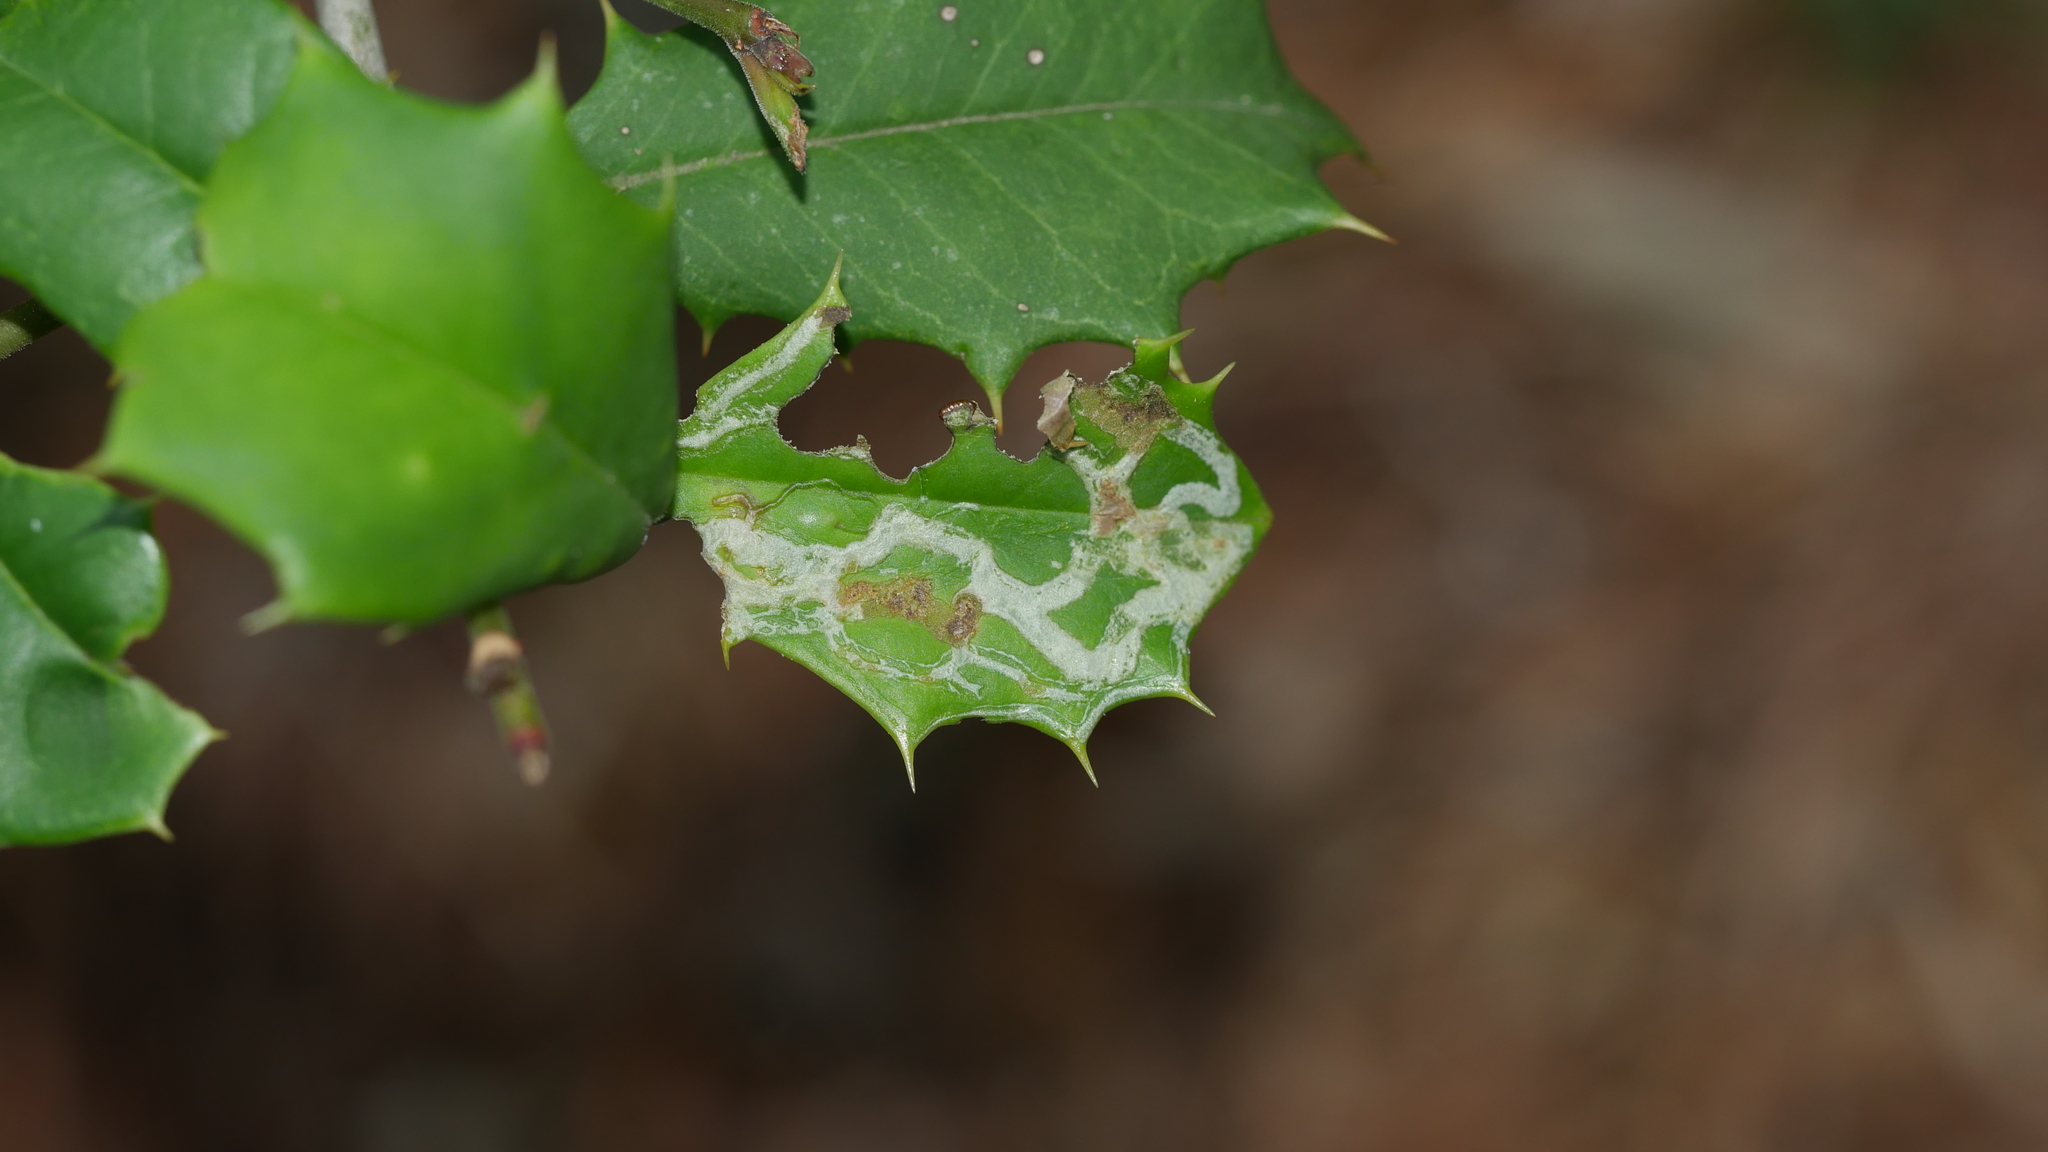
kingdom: Animalia
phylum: Arthropoda
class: Insecta
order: Diptera
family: Agromyzidae
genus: Phytomyza
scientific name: Phytomyza opacae
